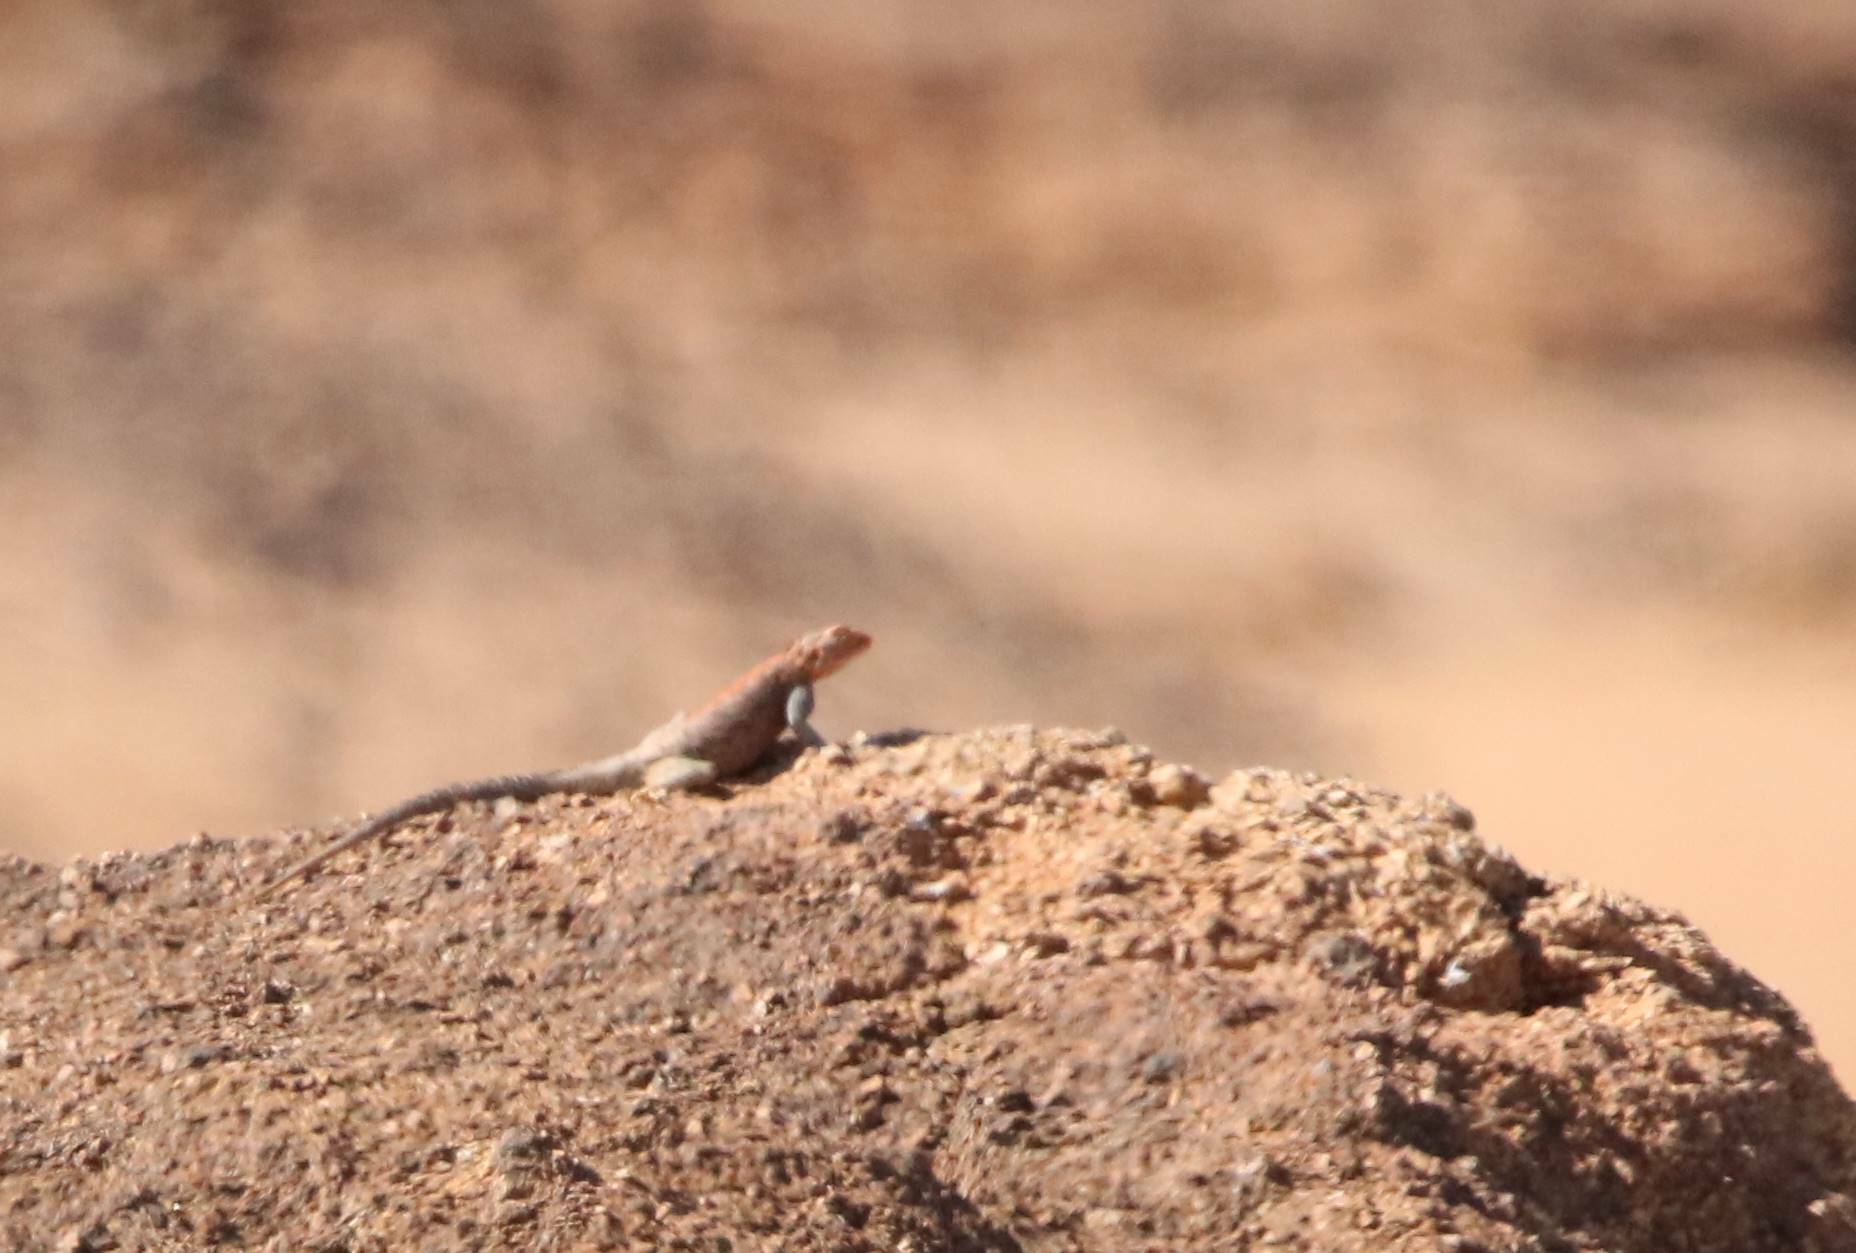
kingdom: Animalia
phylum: Chordata
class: Squamata
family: Agamidae
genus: Agama
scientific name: Agama impalearis
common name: Bibron's agama
